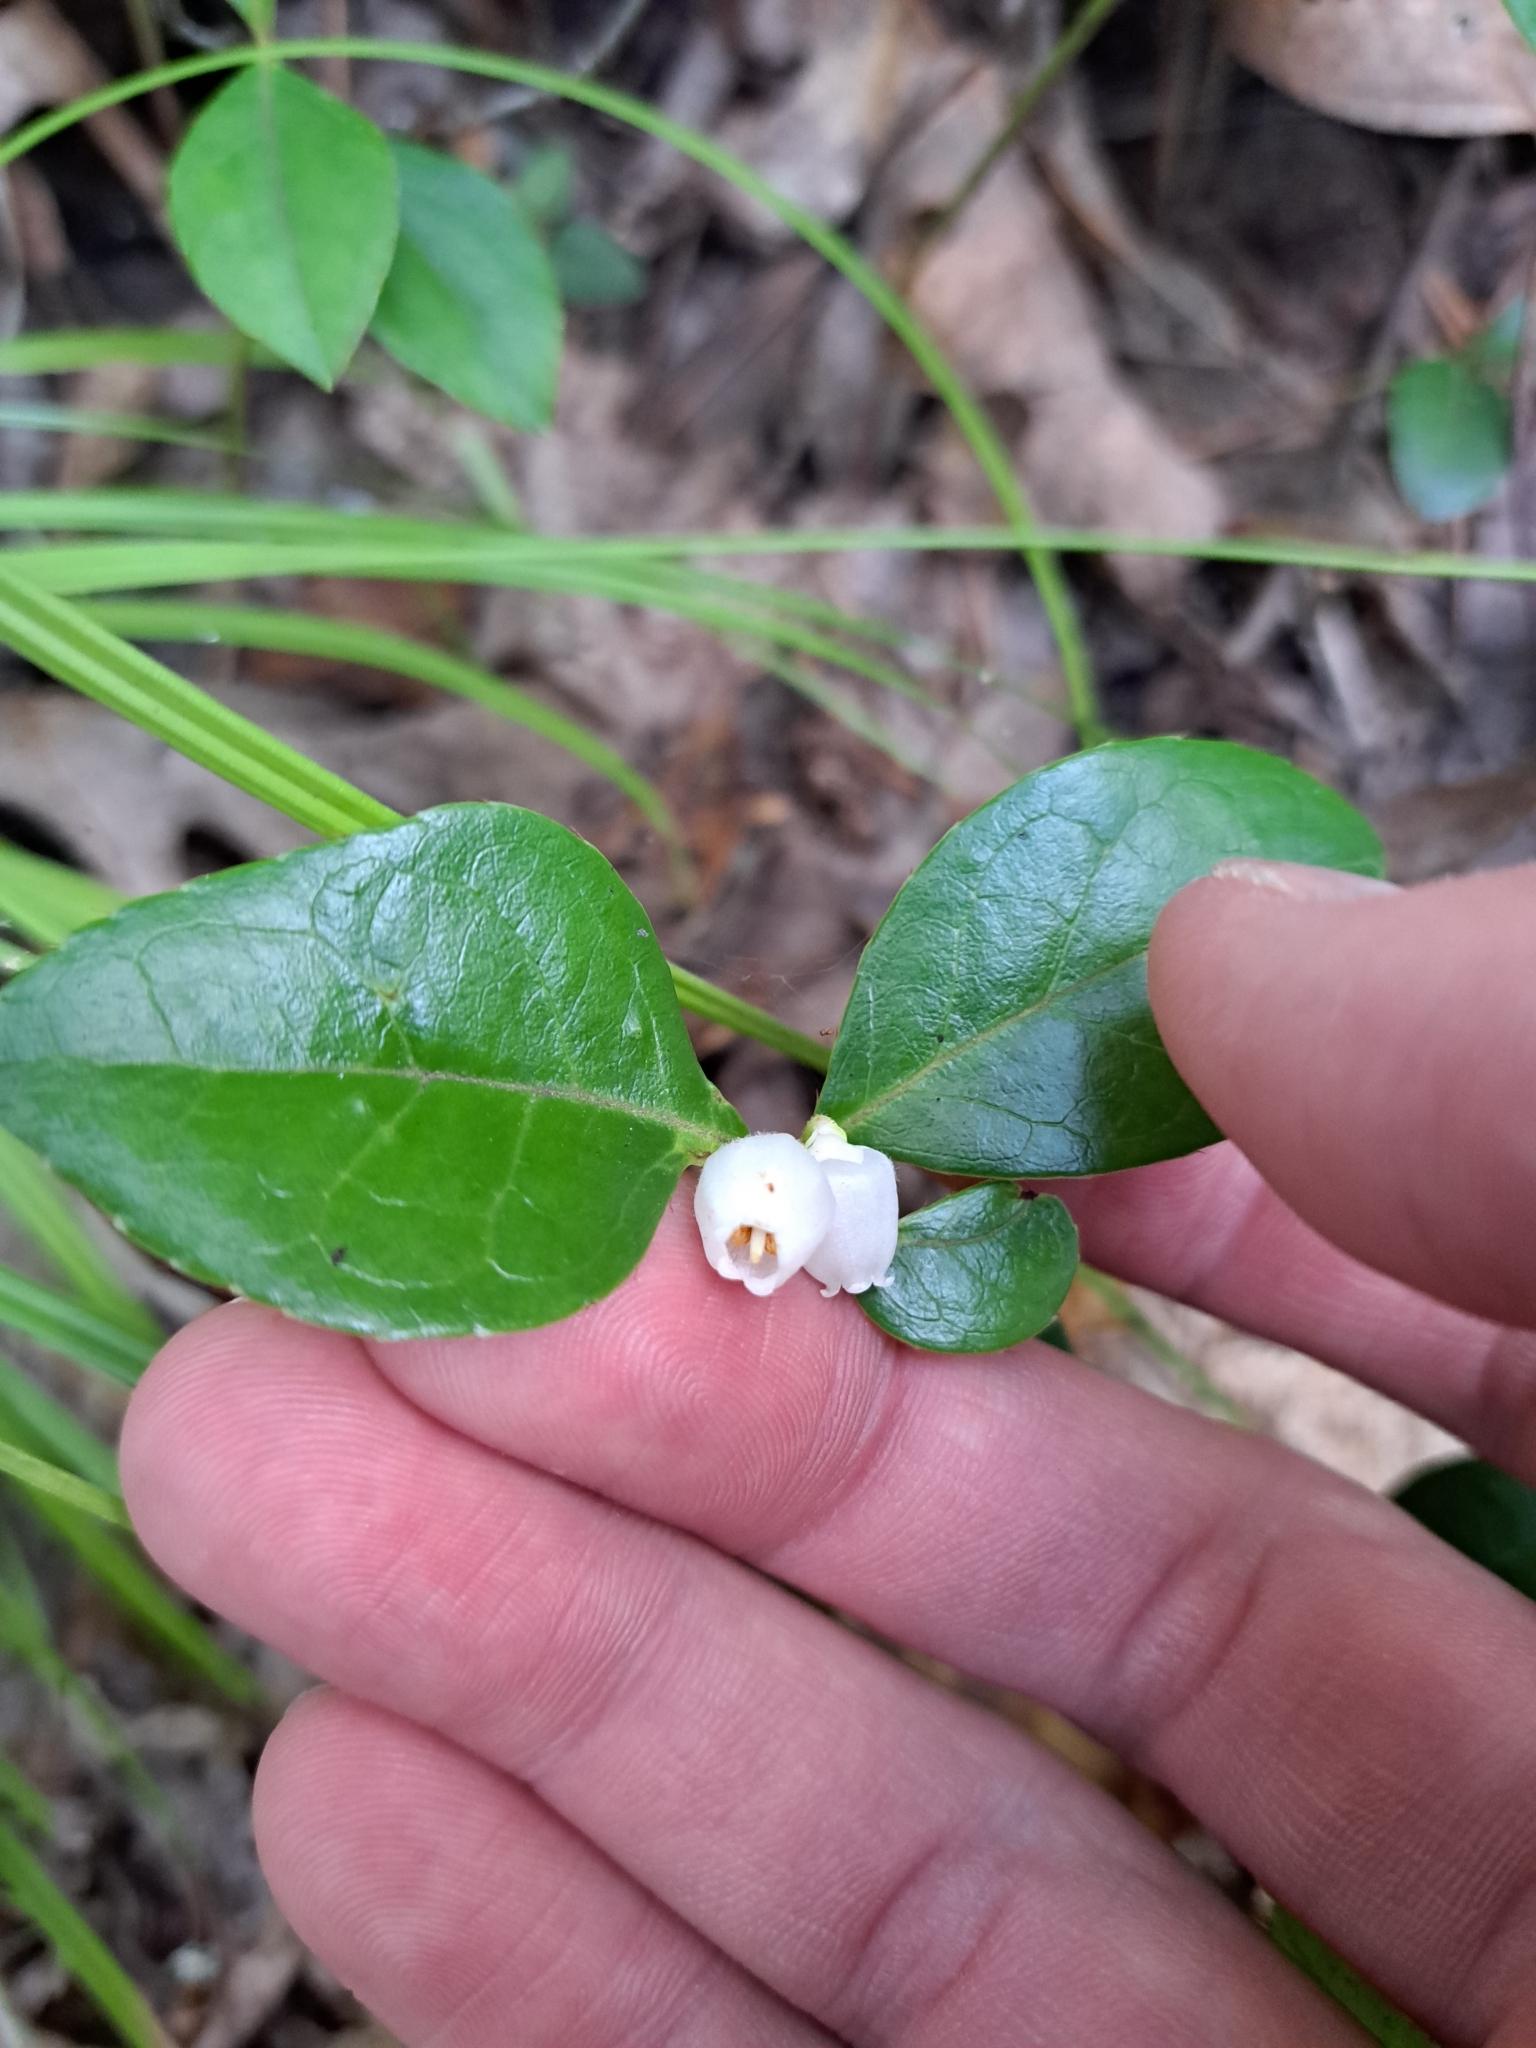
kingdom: Plantae
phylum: Tracheophyta
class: Magnoliopsida
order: Ericales
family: Ericaceae
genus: Gaultheria
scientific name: Gaultheria procumbens
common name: Checkerberry
